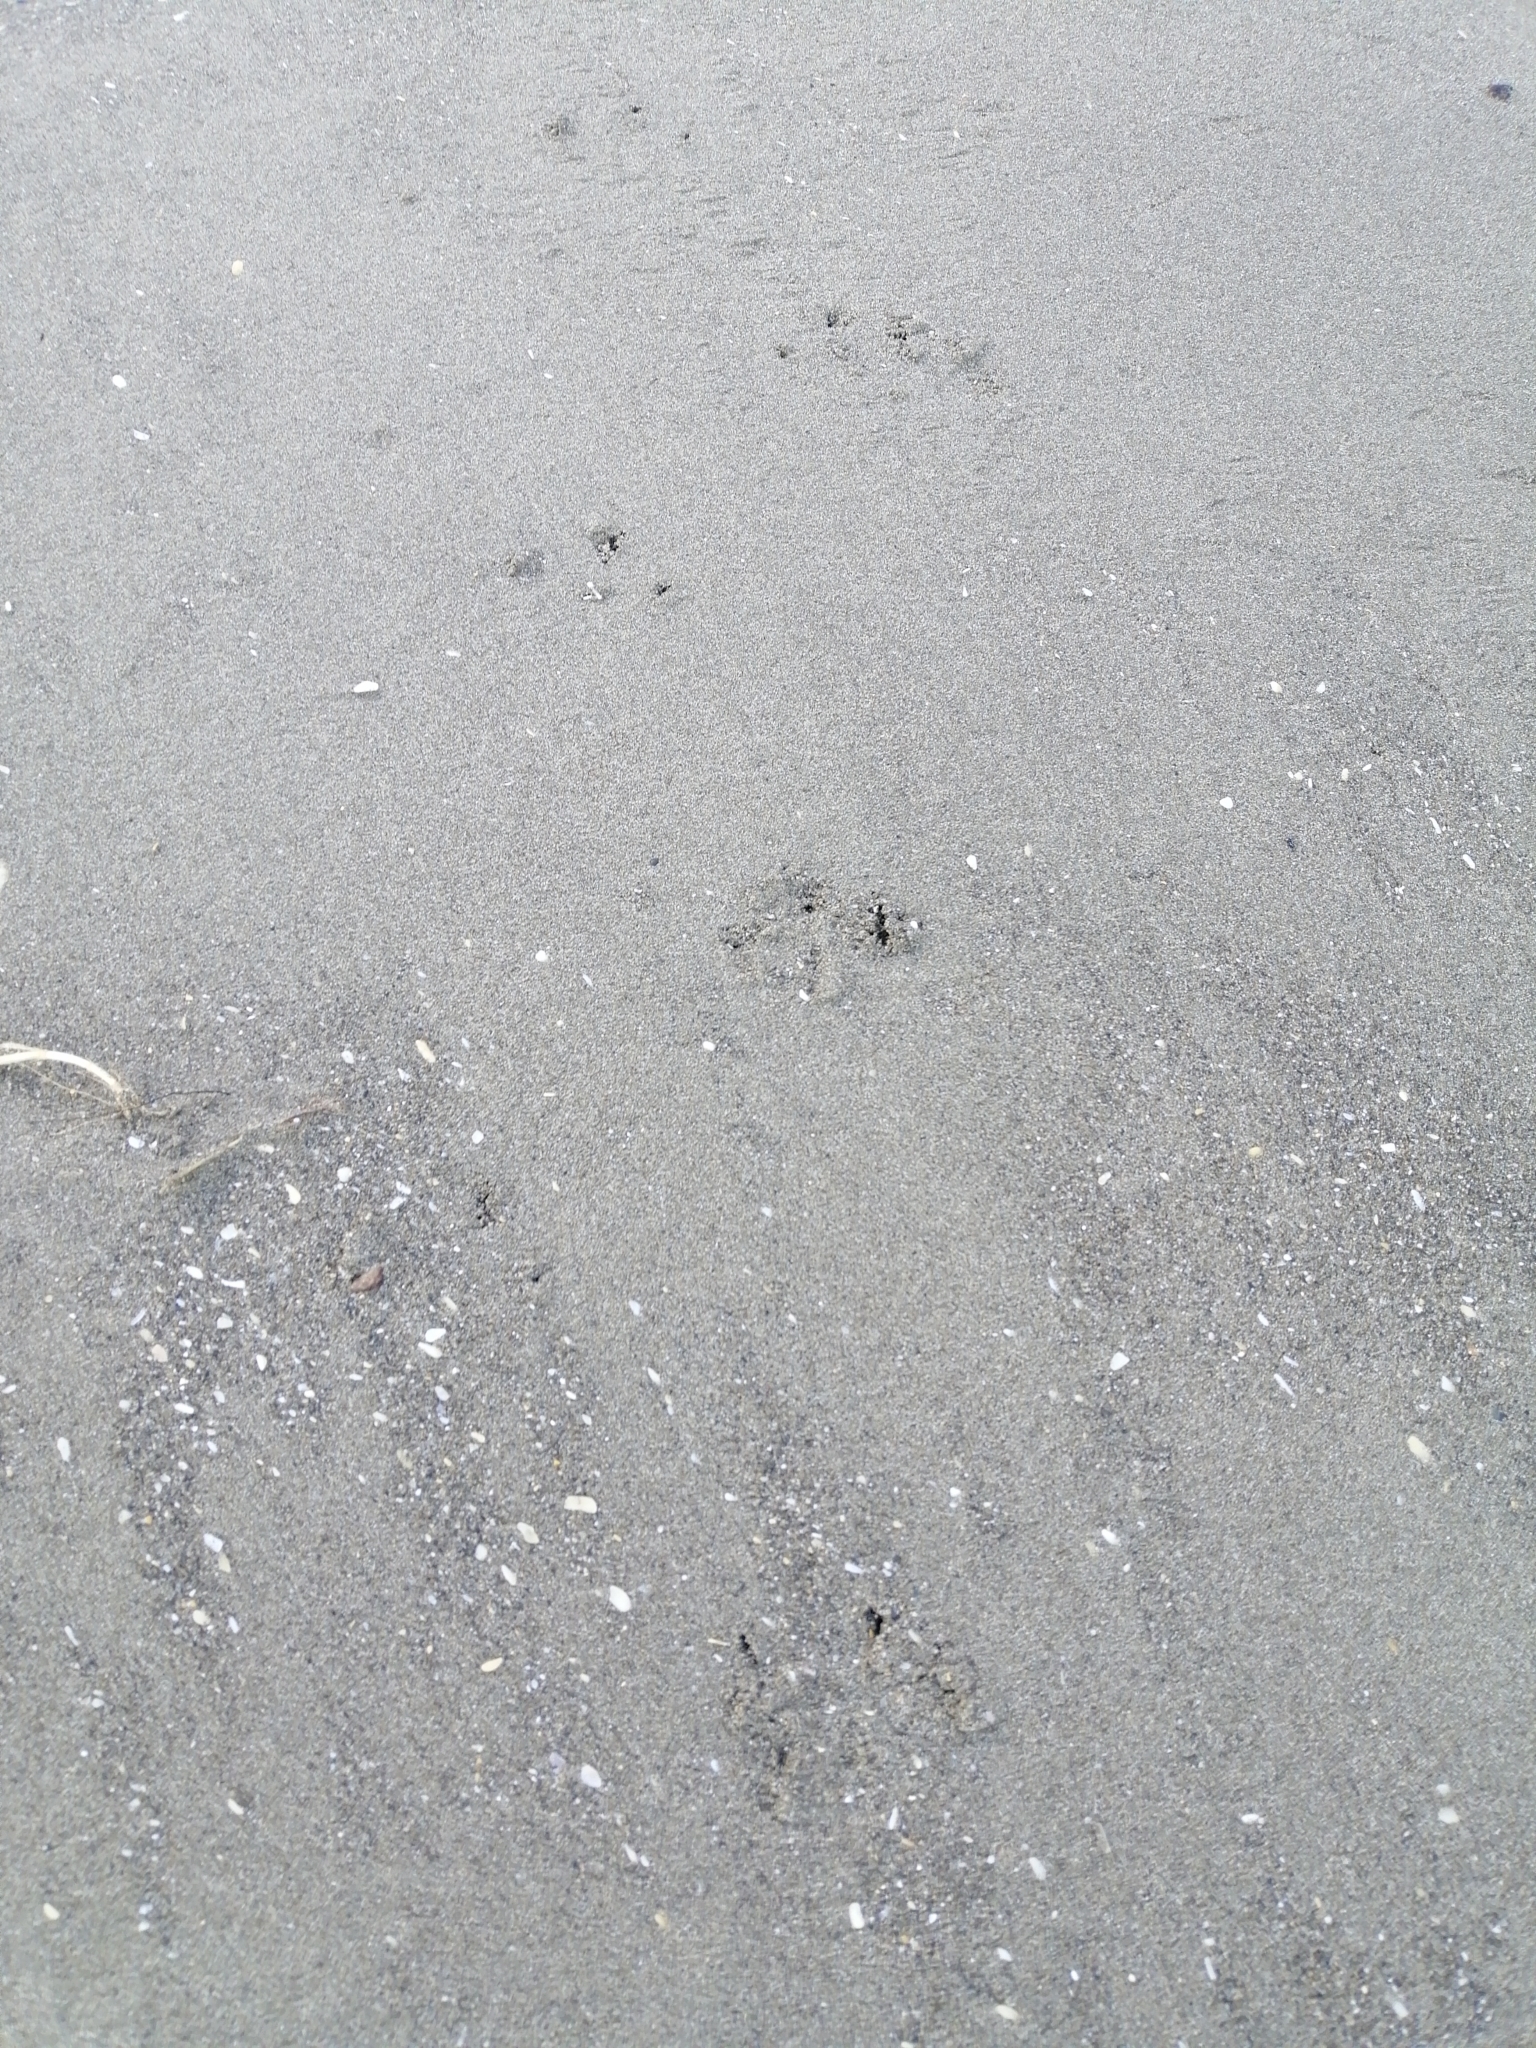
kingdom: Animalia
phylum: Chordata
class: Aves
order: Sphenisciformes
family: Spheniscidae
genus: Eudyptula
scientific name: Eudyptula minor
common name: Little penguin
